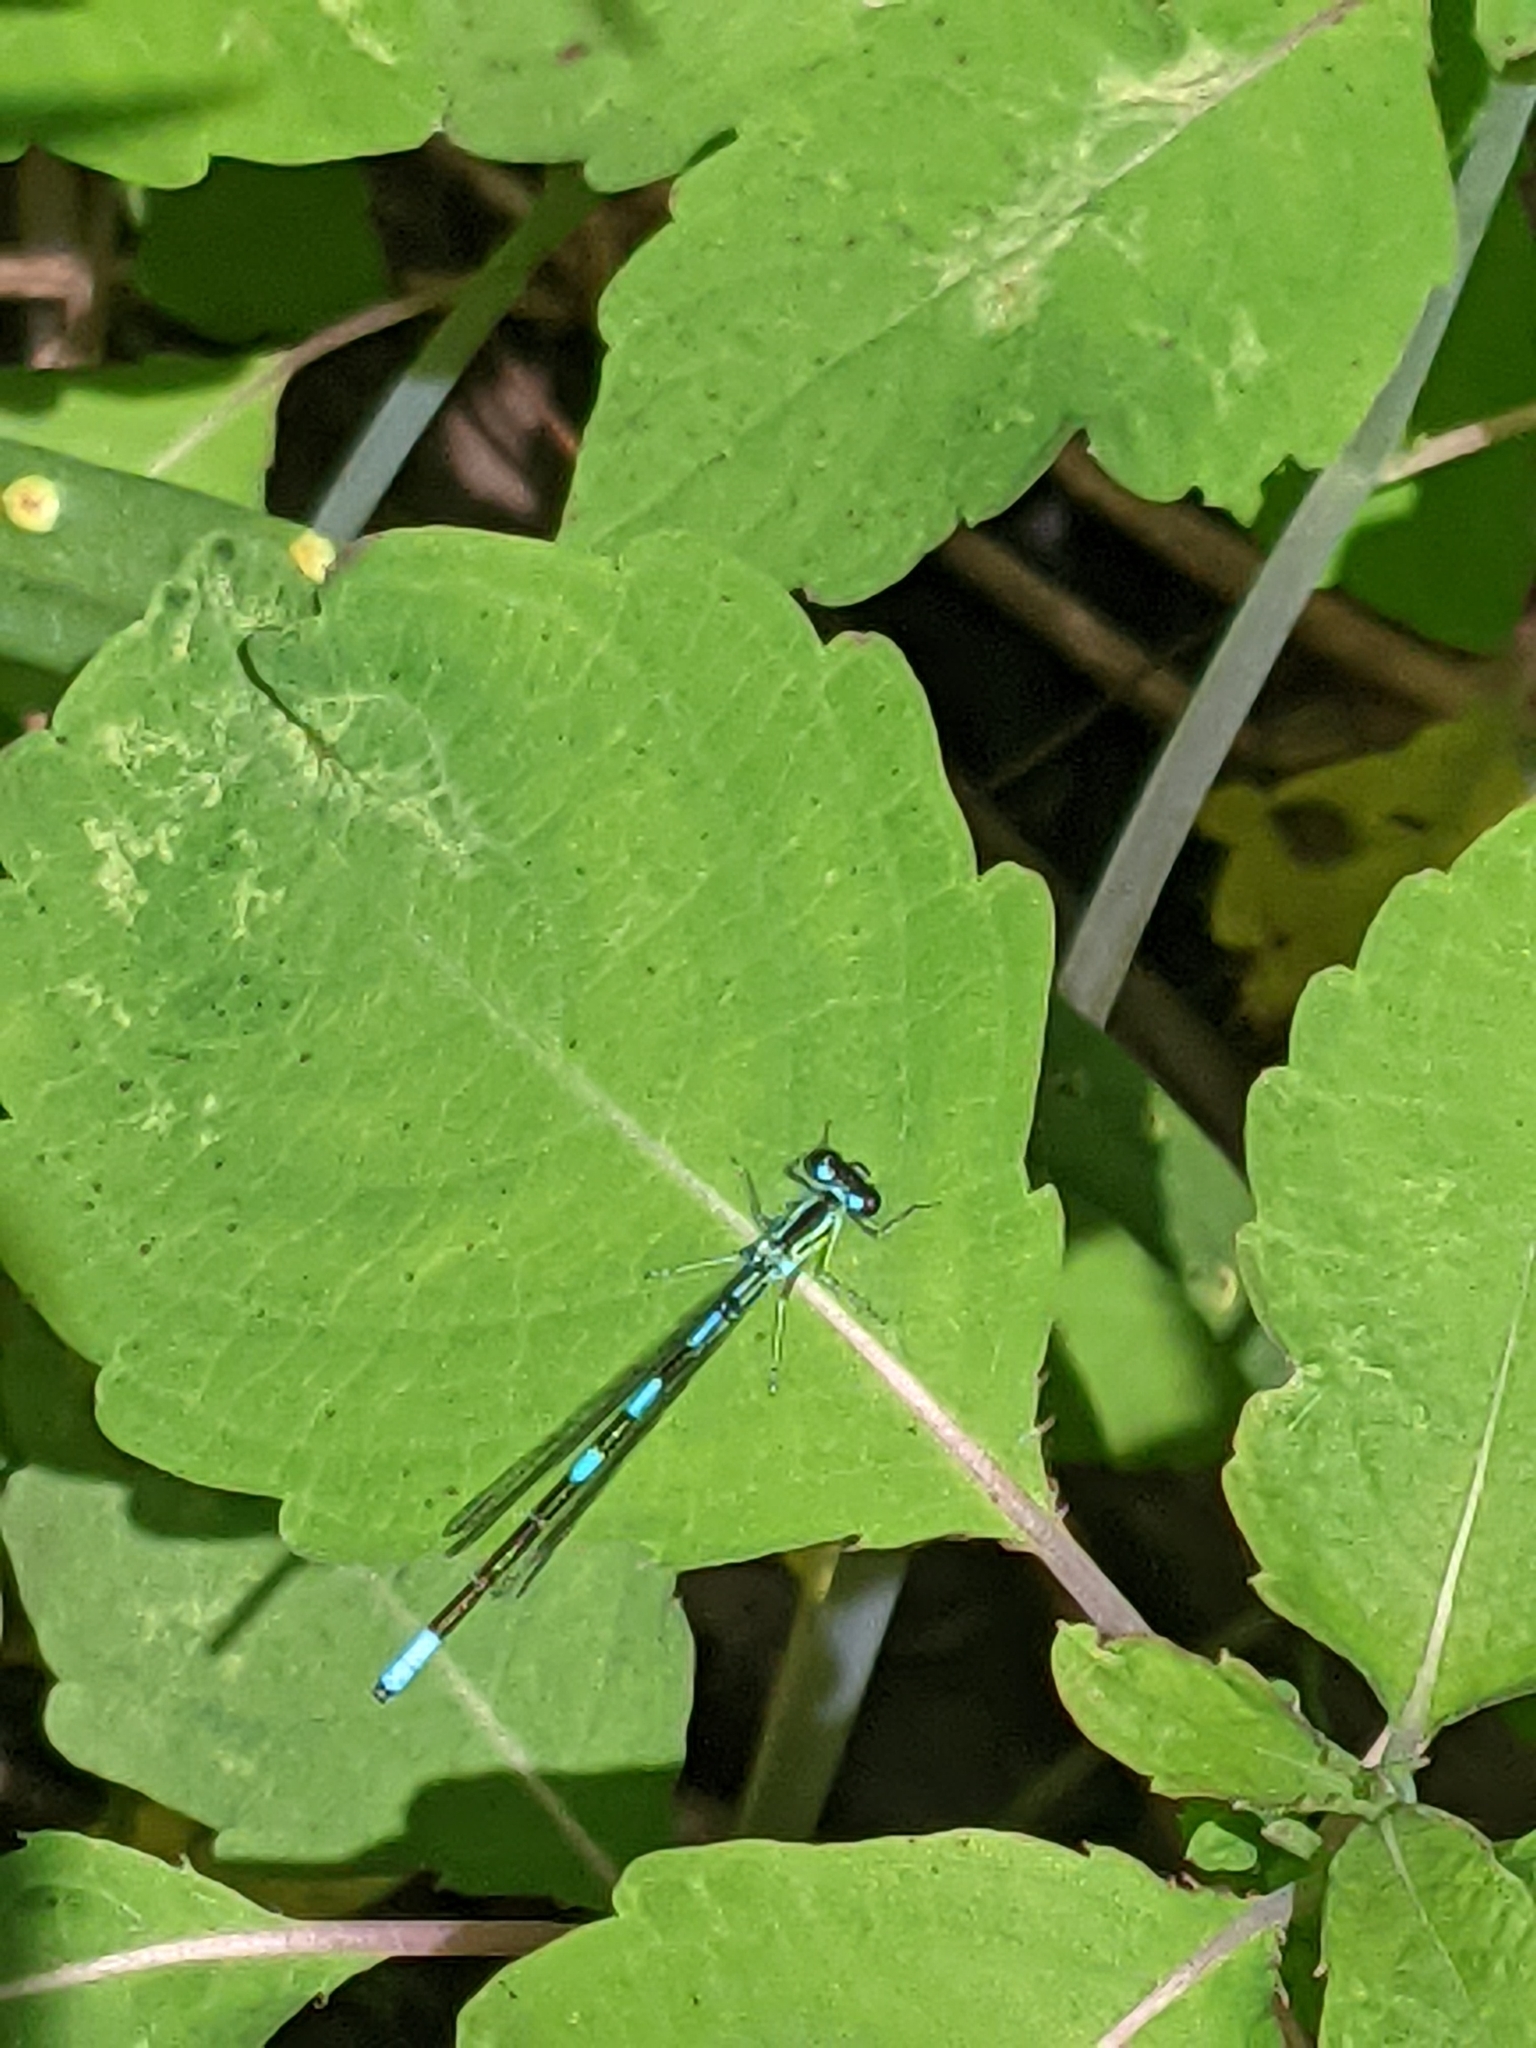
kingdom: Animalia
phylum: Arthropoda
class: Insecta
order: Odonata
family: Coenagrionidae
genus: Coenagrion
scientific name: Coenagrion resolutum
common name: Taiga bluet
